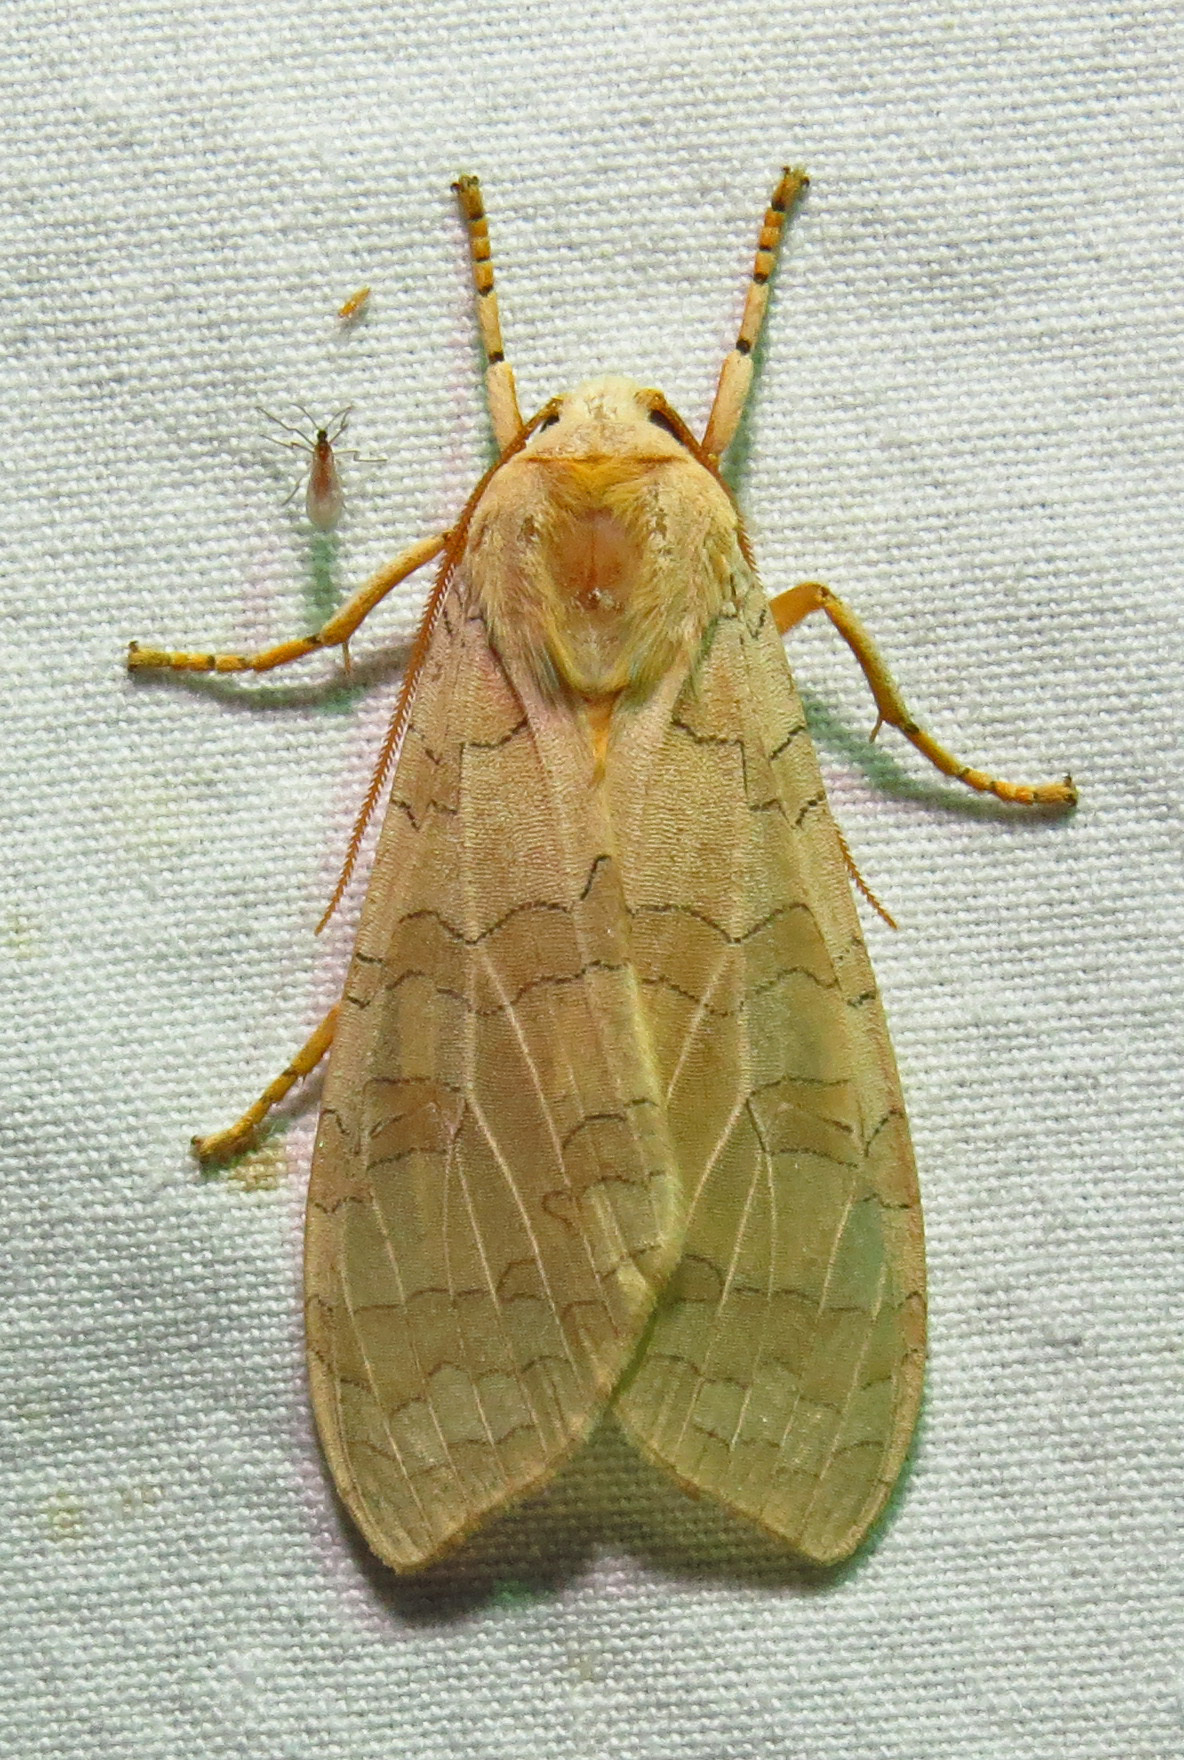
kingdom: Animalia
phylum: Arthropoda
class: Insecta
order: Lepidoptera
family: Erebidae
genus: Halysidota
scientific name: Halysidota
